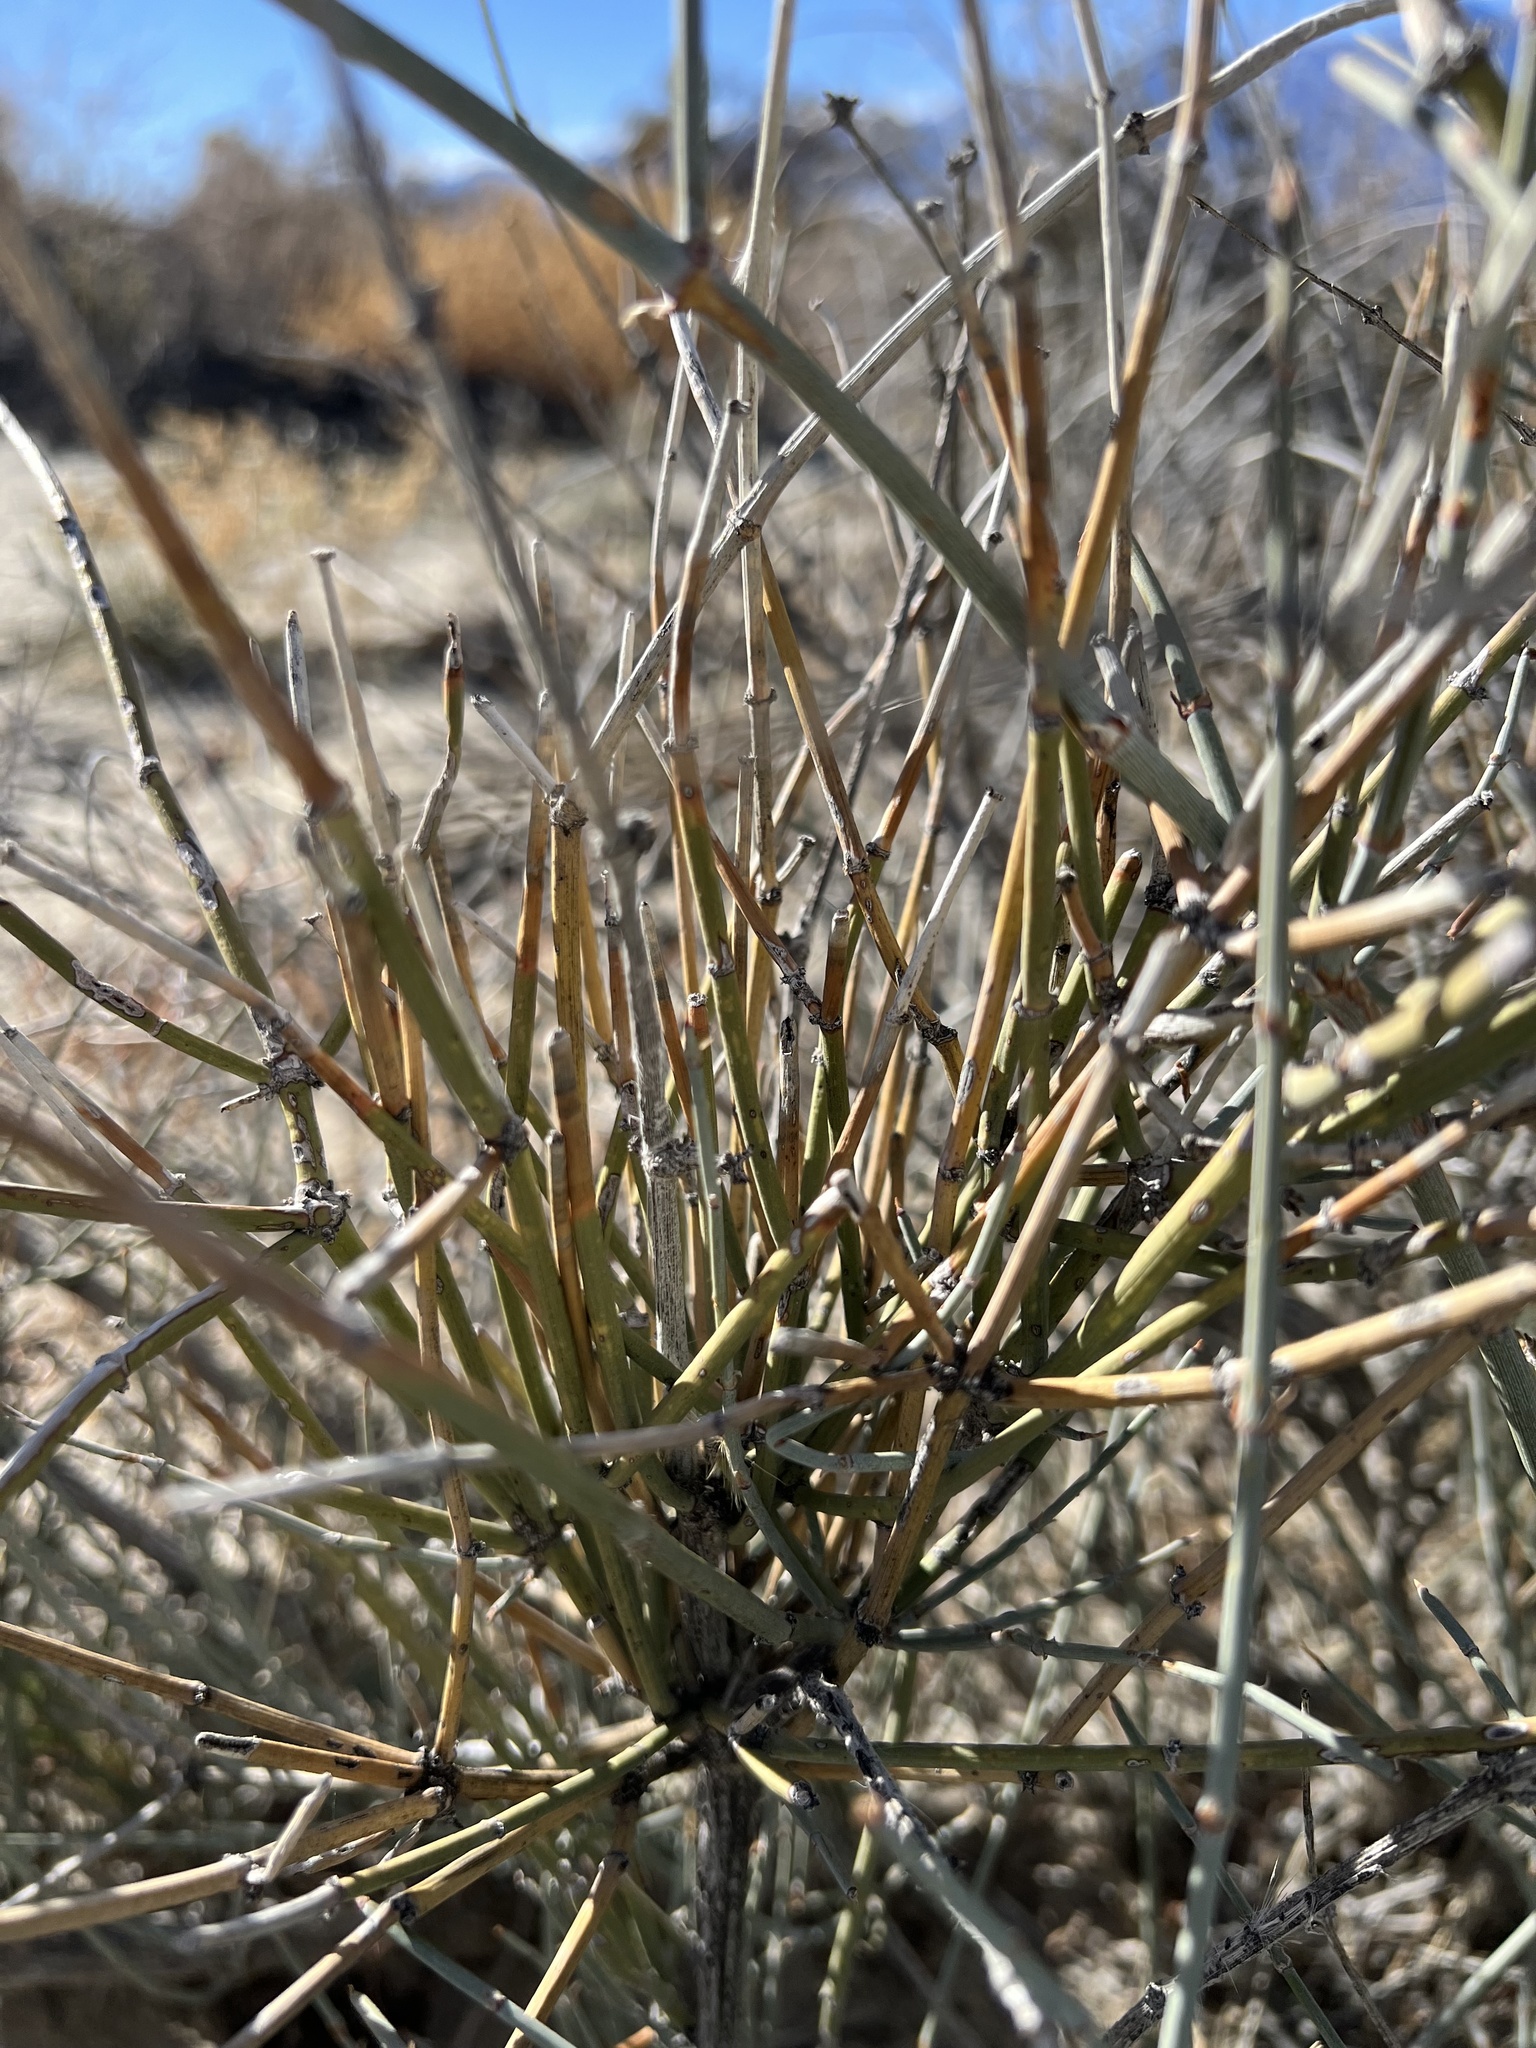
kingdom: Plantae
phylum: Tracheophyta
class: Gnetopsida
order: Ephedrales
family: Ephedraceae
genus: Ephedra
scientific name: Ephedra nevadensis
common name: Gray ephedra
